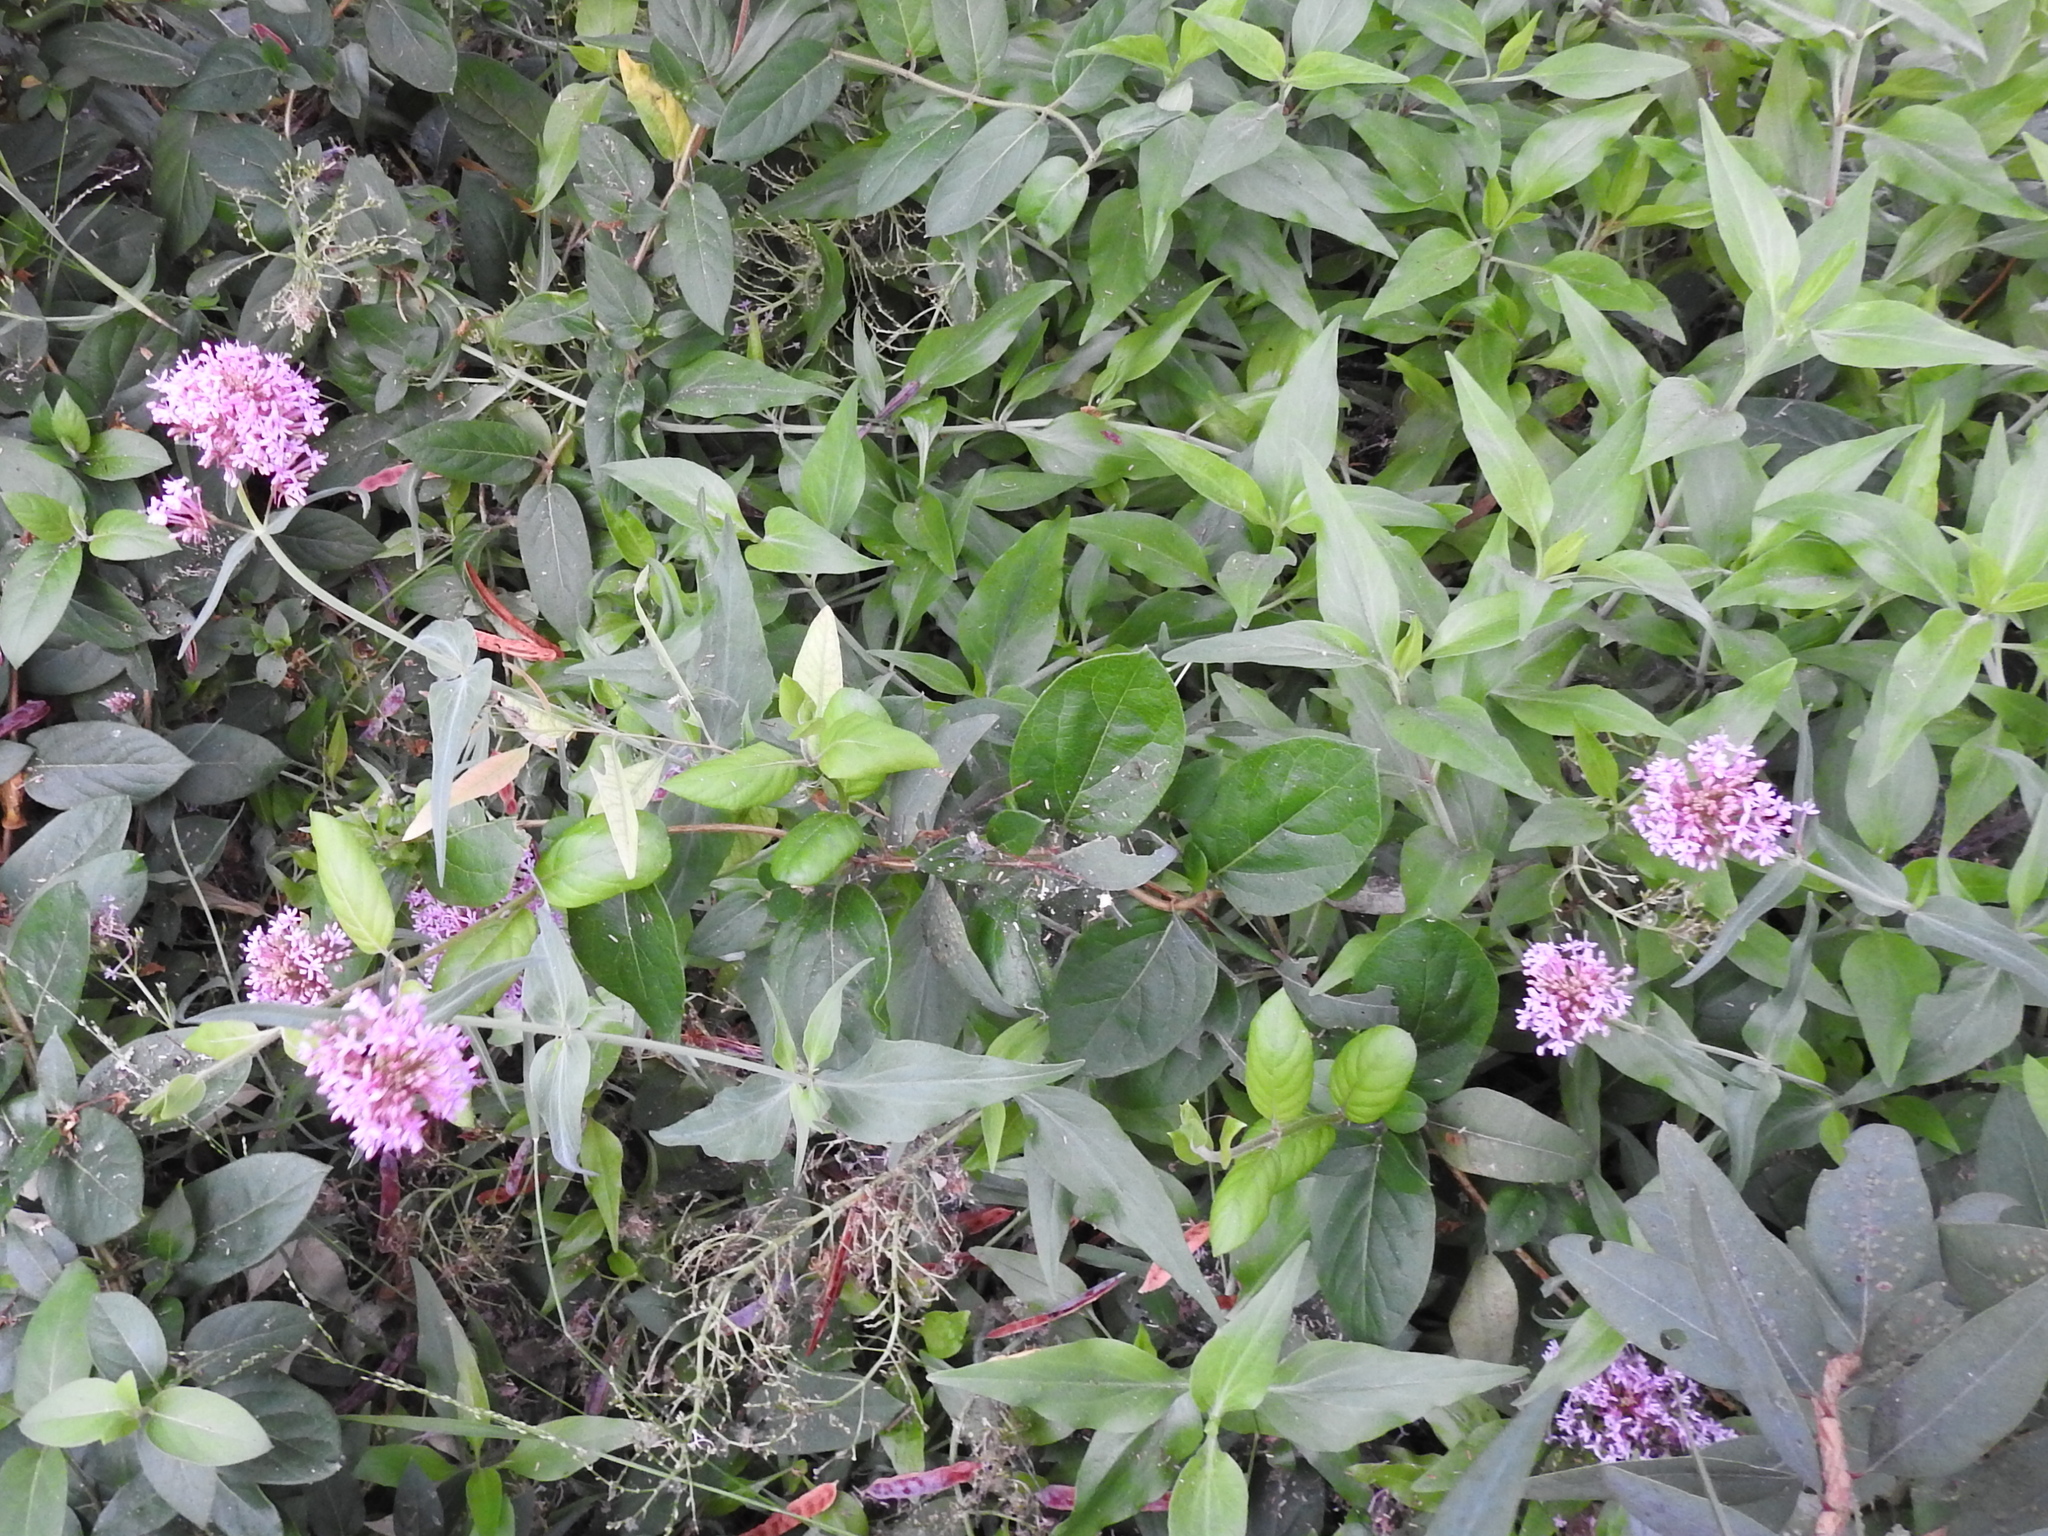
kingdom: Plantae
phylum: Tracheophyta
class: Magnoliopsida
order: Dipsacales
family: Caprifoliaceae
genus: Centranthus
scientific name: Centranthus ruber
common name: Red valerian
